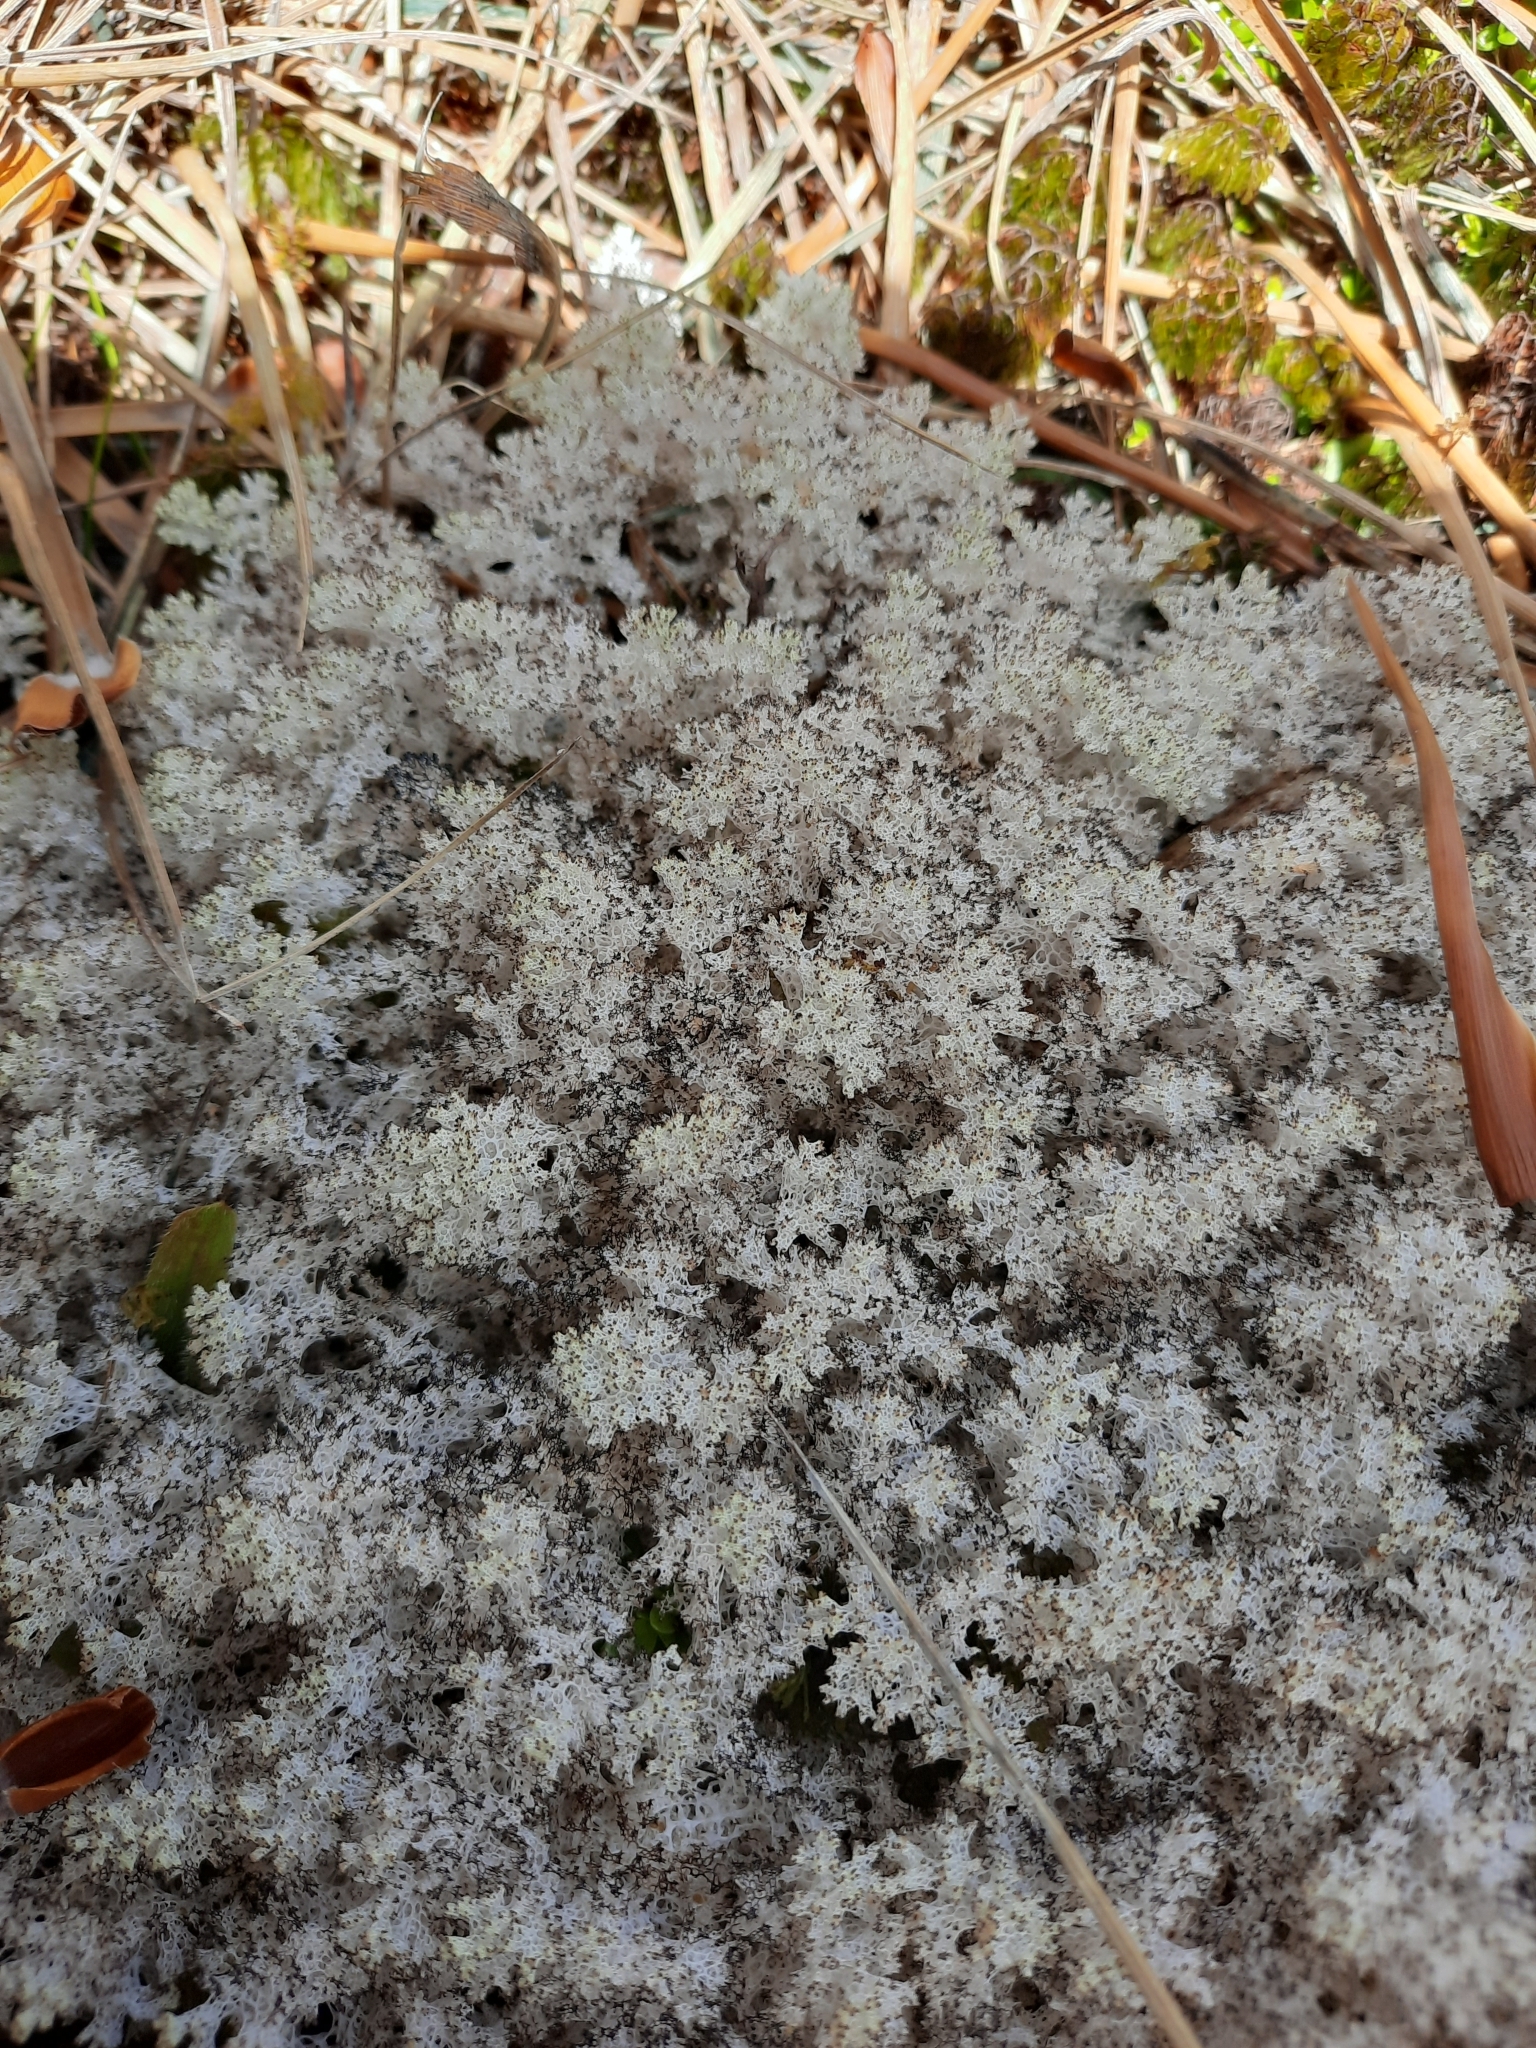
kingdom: Fungi
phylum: Ascomycota
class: Lecanoromycetes
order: Lecanorales
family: Cladoniaceae
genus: Pulchrocladia
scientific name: Pulchrocladia retipora
